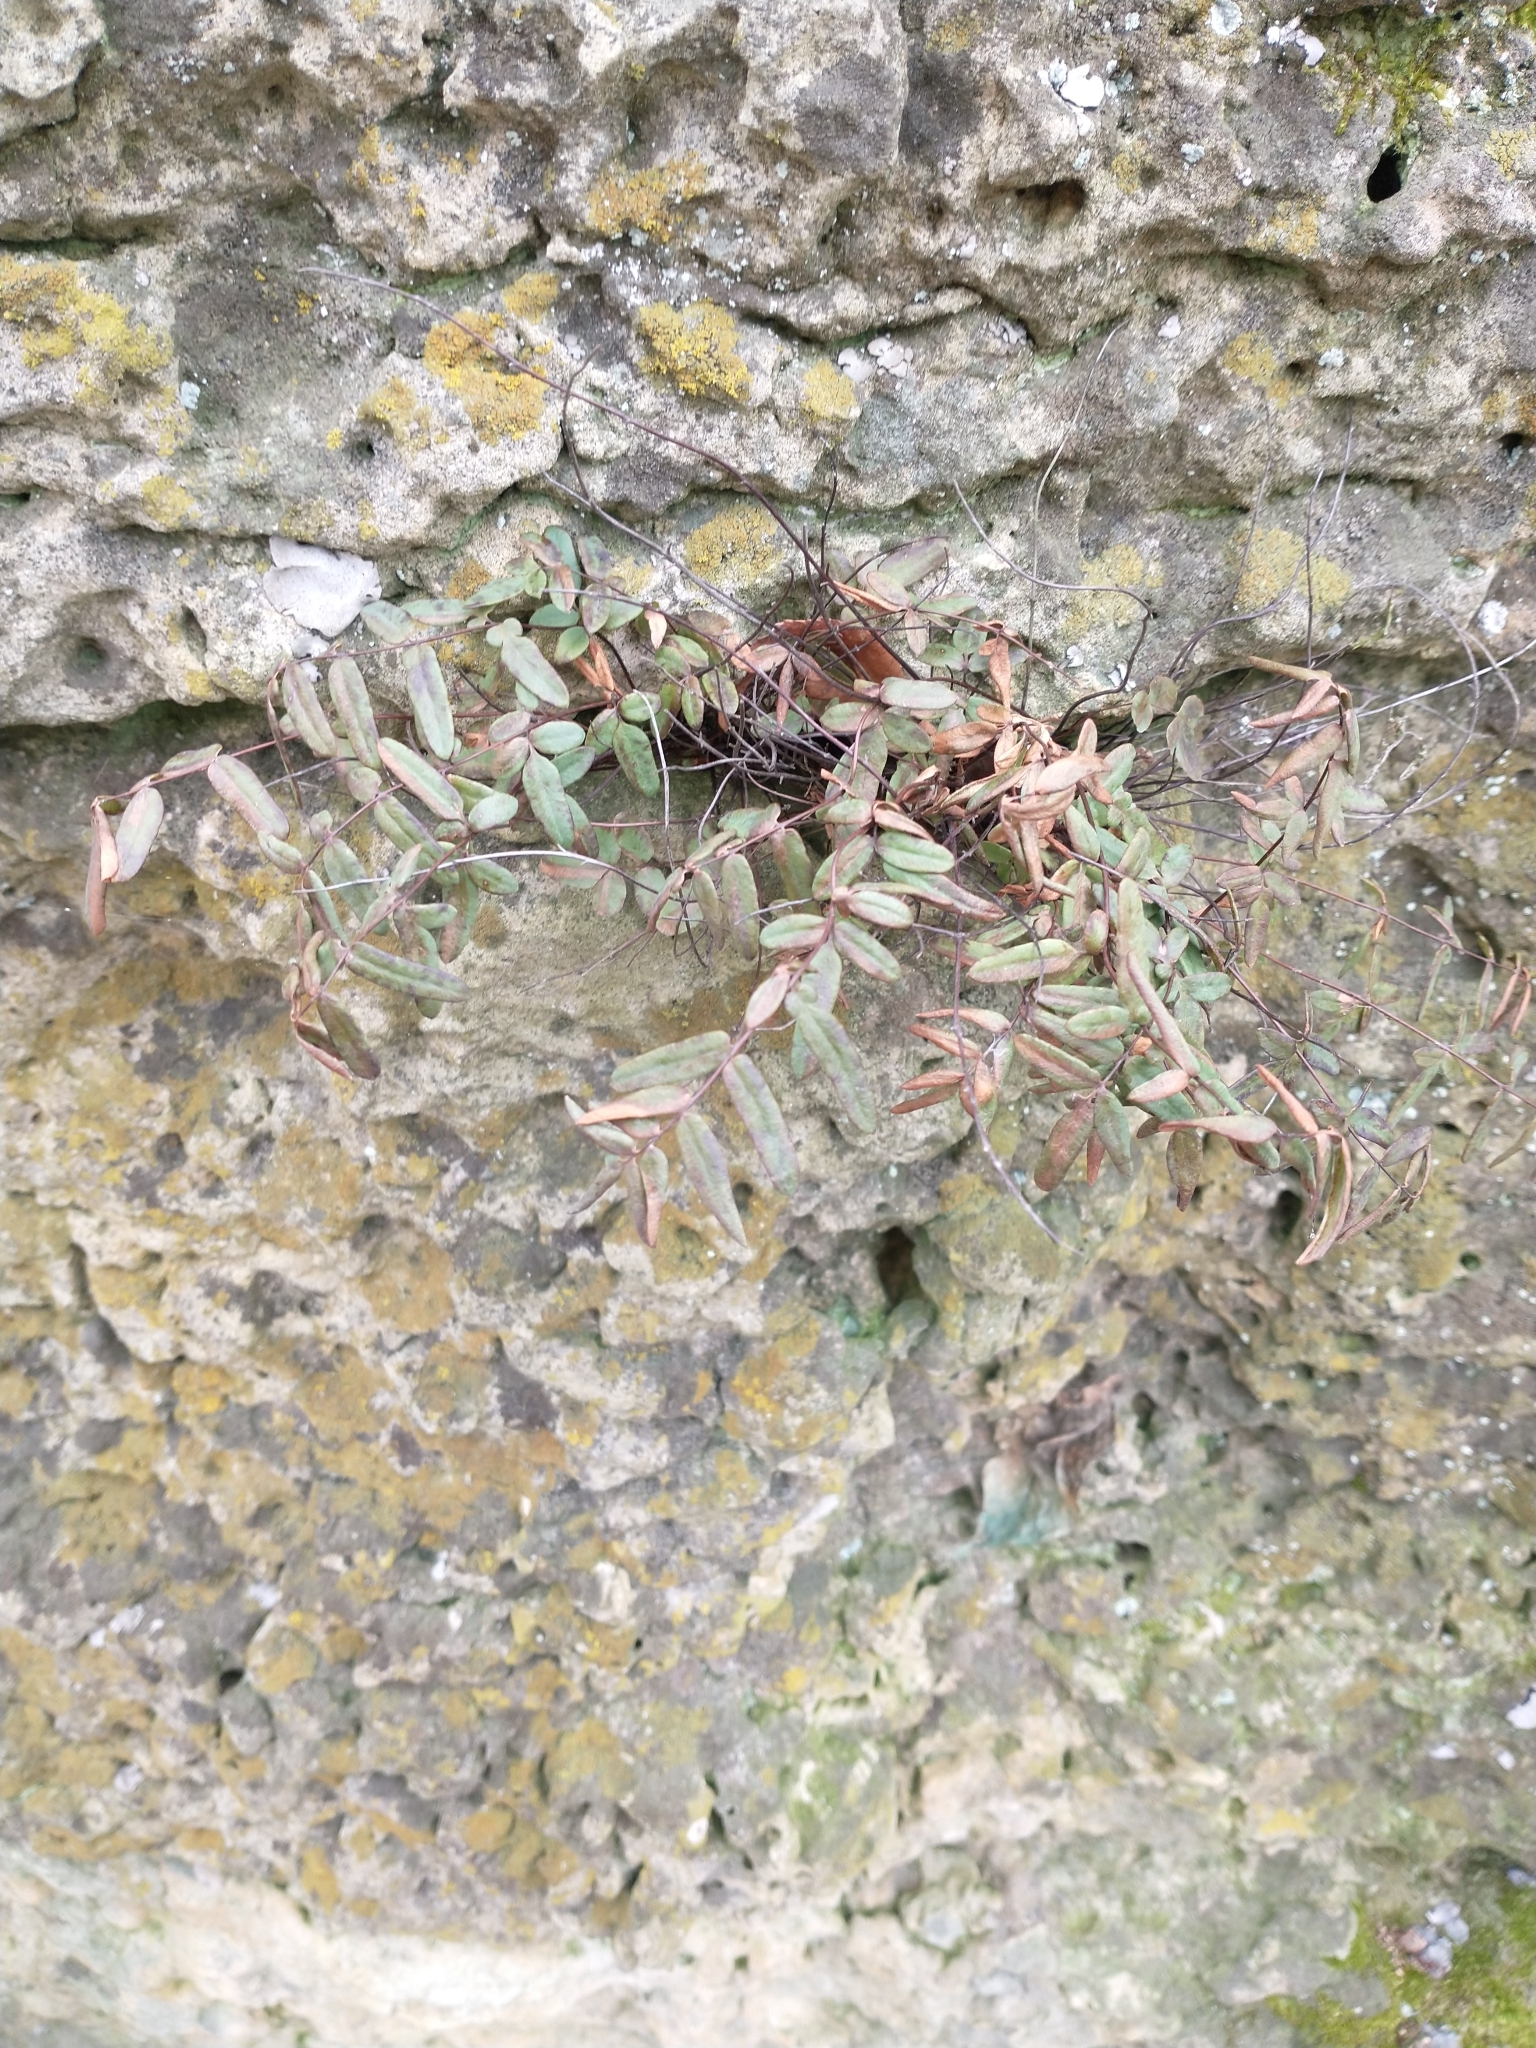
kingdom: Plantae
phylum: Tracheophyta
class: Polypodiopsida
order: Polypodiales
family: Pteridaceae
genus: Pellaea
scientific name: Pellaea glabella
